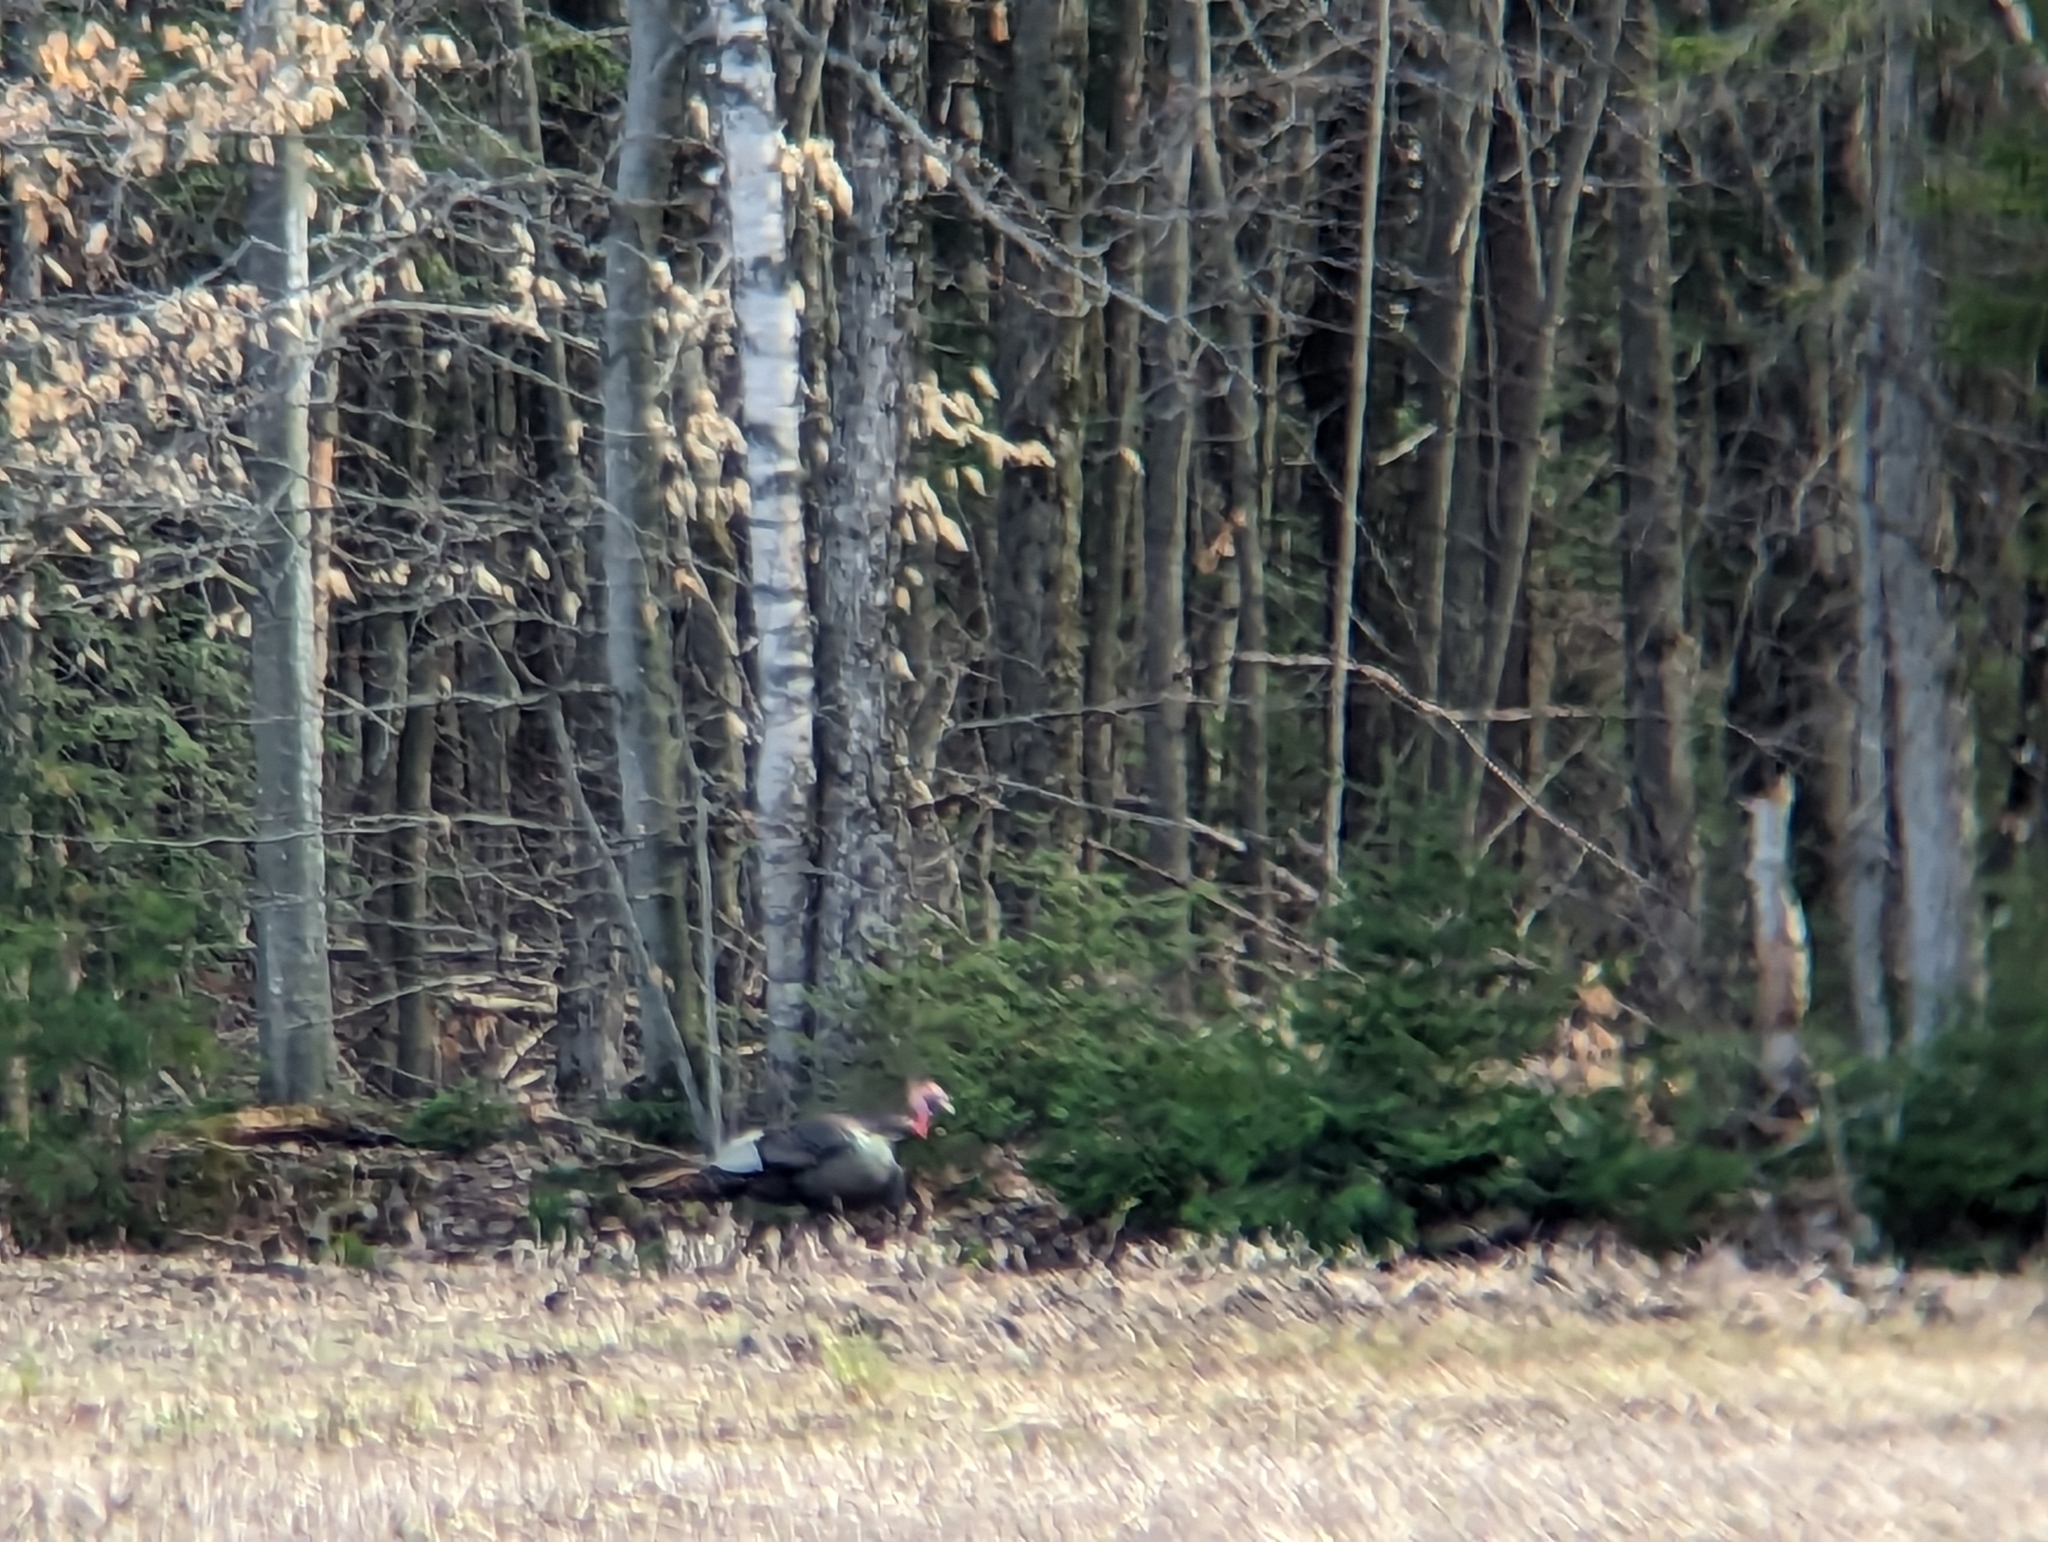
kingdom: Animalia
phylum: Chordata
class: Aves
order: Galliformes
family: Phasianidae
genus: Meleagris
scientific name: Meleagris gallopavo
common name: Wild turkey
